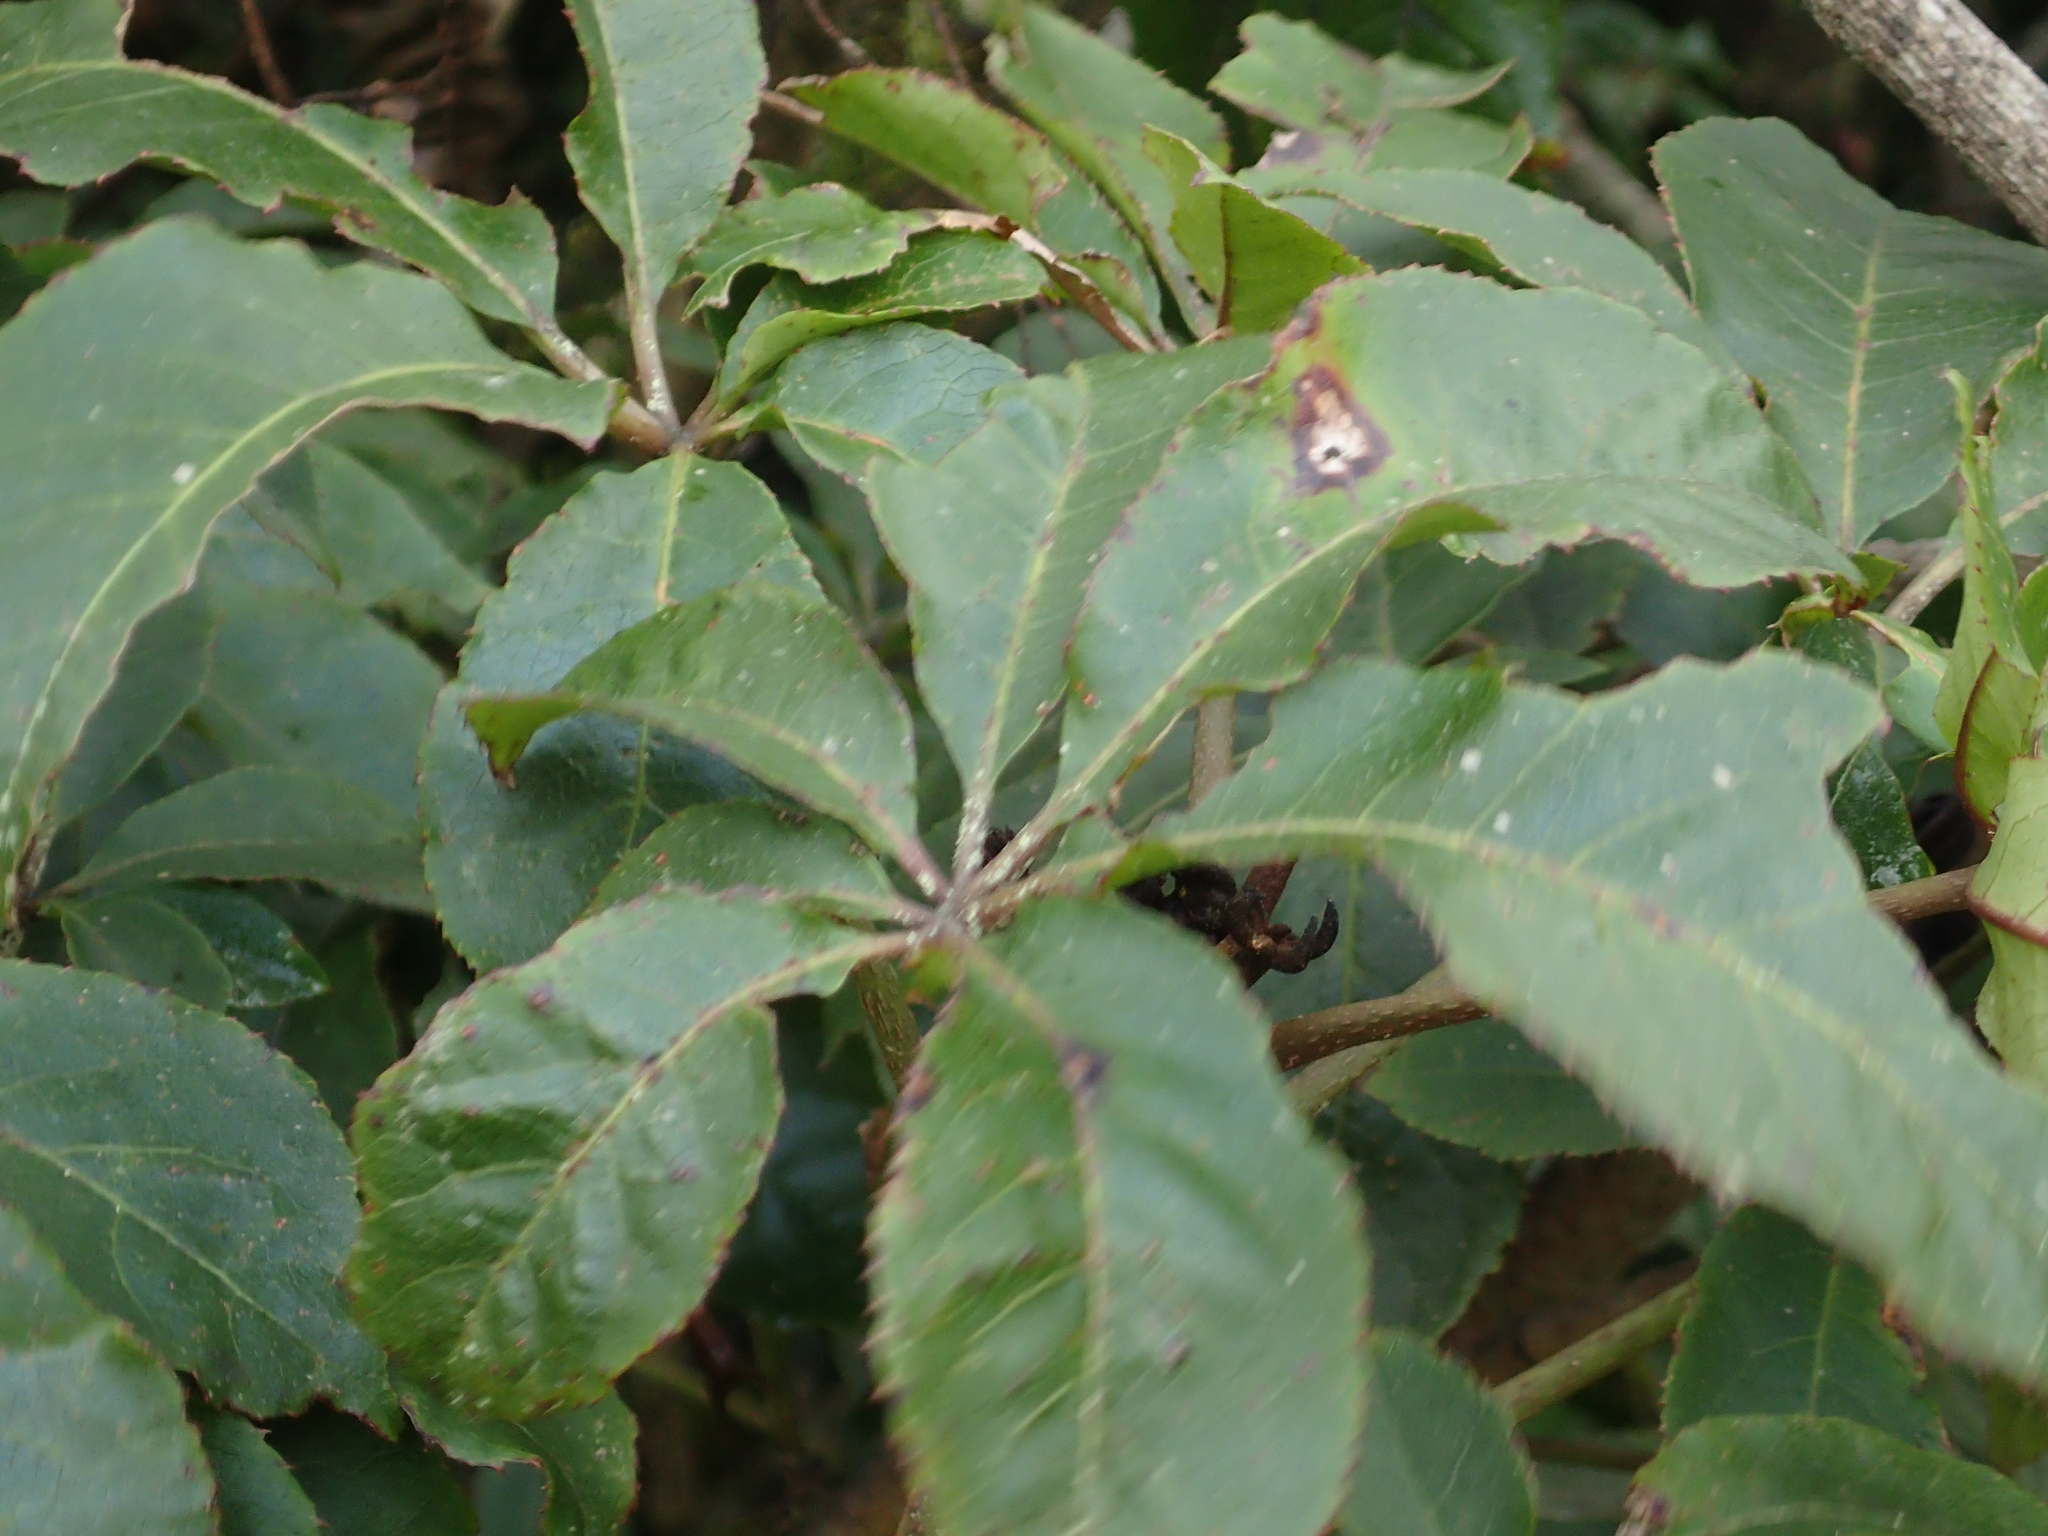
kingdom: Plantae
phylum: Tracheophyta
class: Magnoliopsida
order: Apiales
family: Araliaceae
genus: Schefflera
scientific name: Schefflera digitata
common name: Pate
